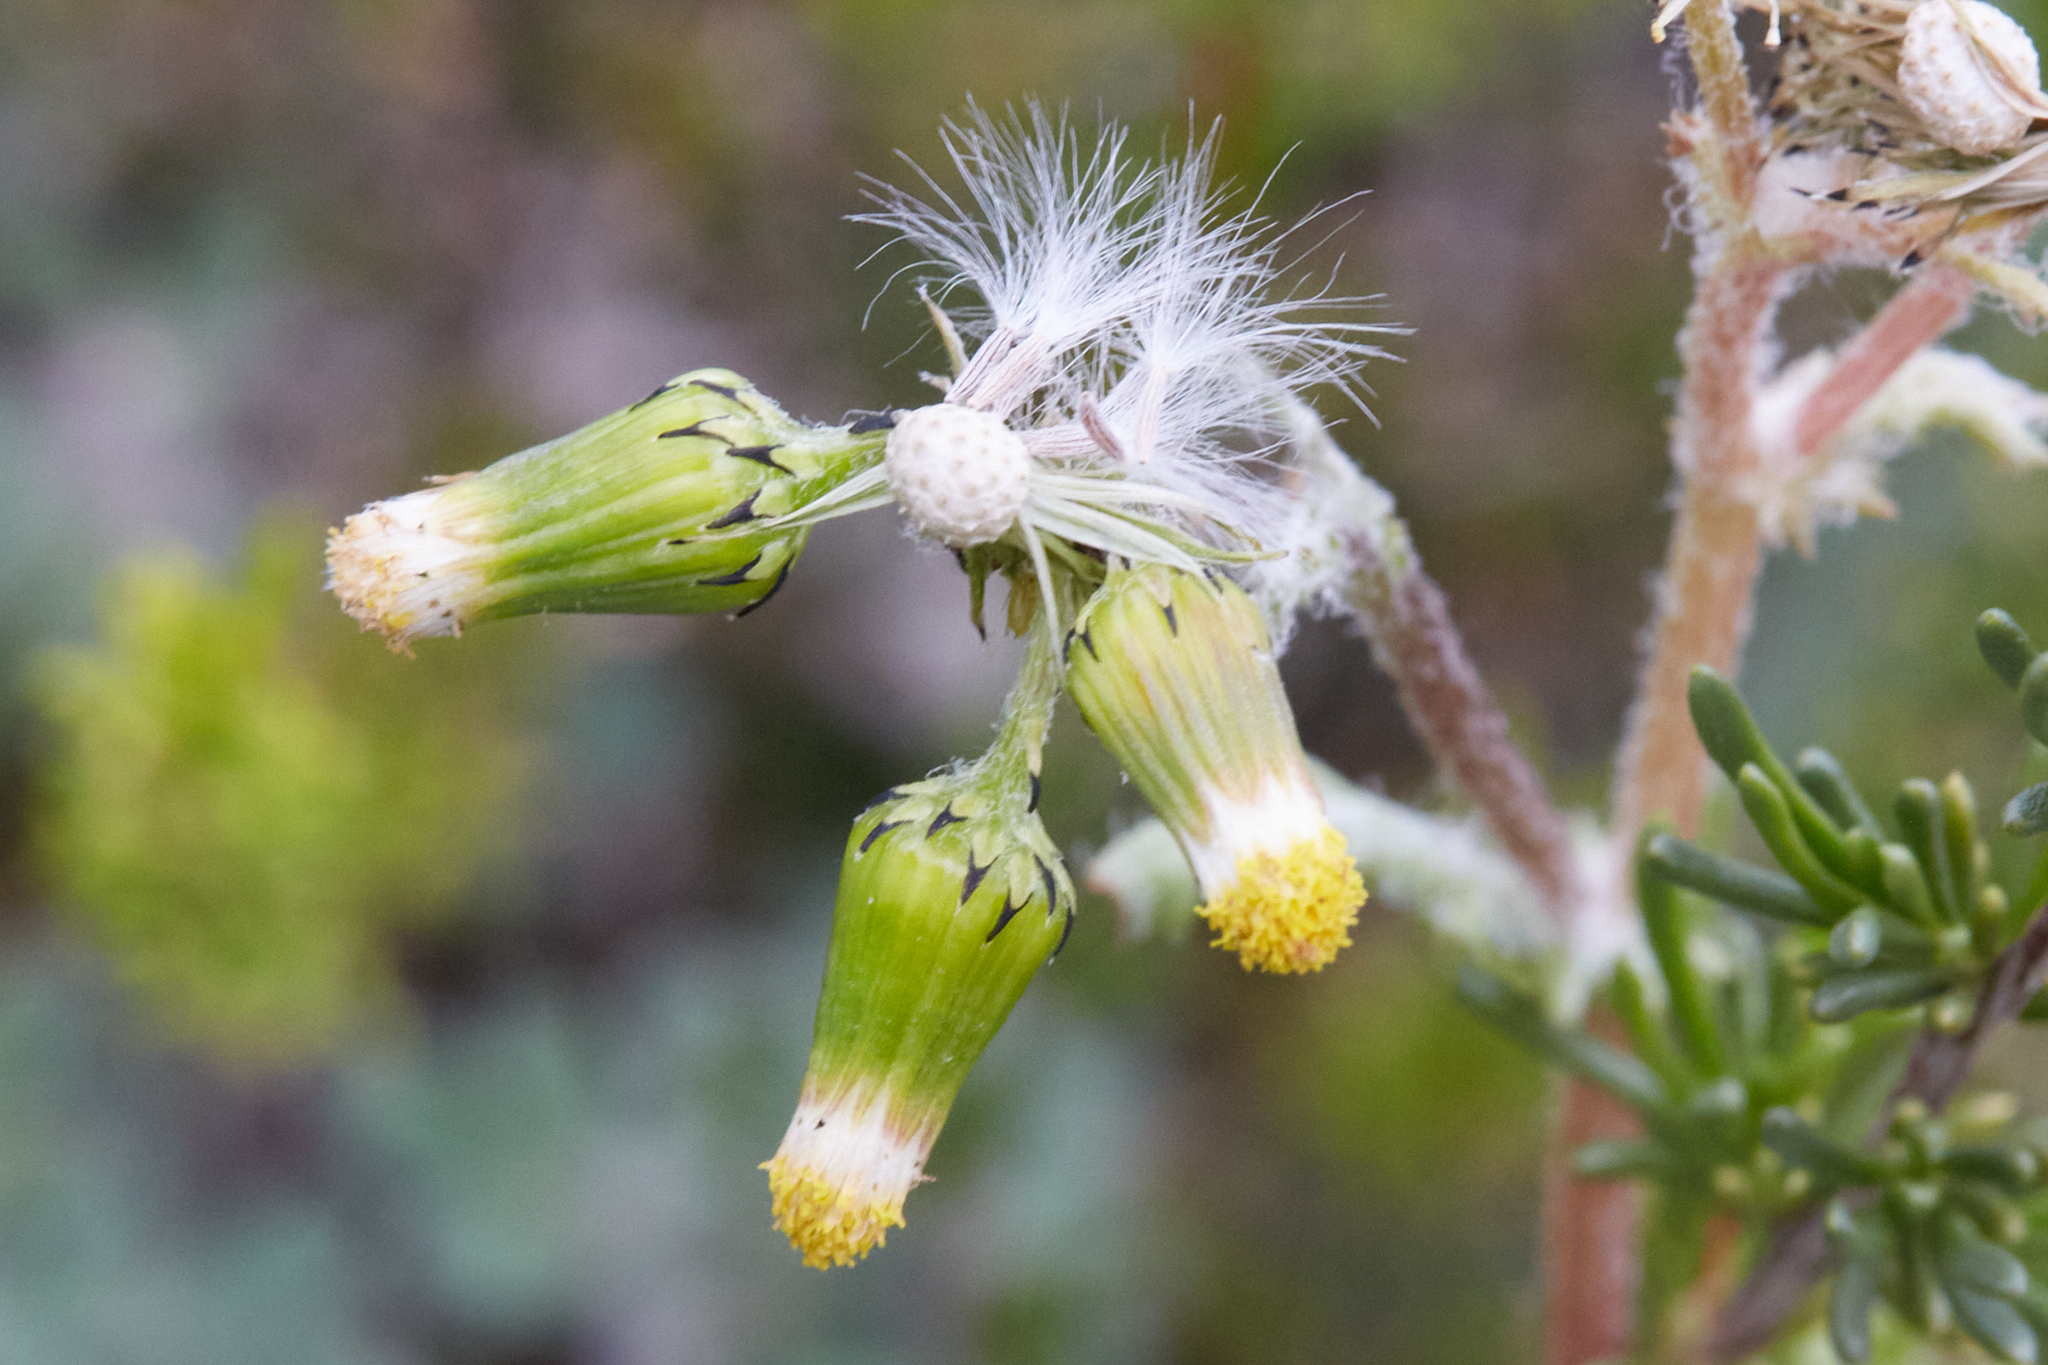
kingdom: Plantae
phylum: Tracheophyta
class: Magnoliopsida
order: Asterales
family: Asteraceae
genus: Senecio
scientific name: Senecio vulgaris
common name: Old-man-in-the-spring
